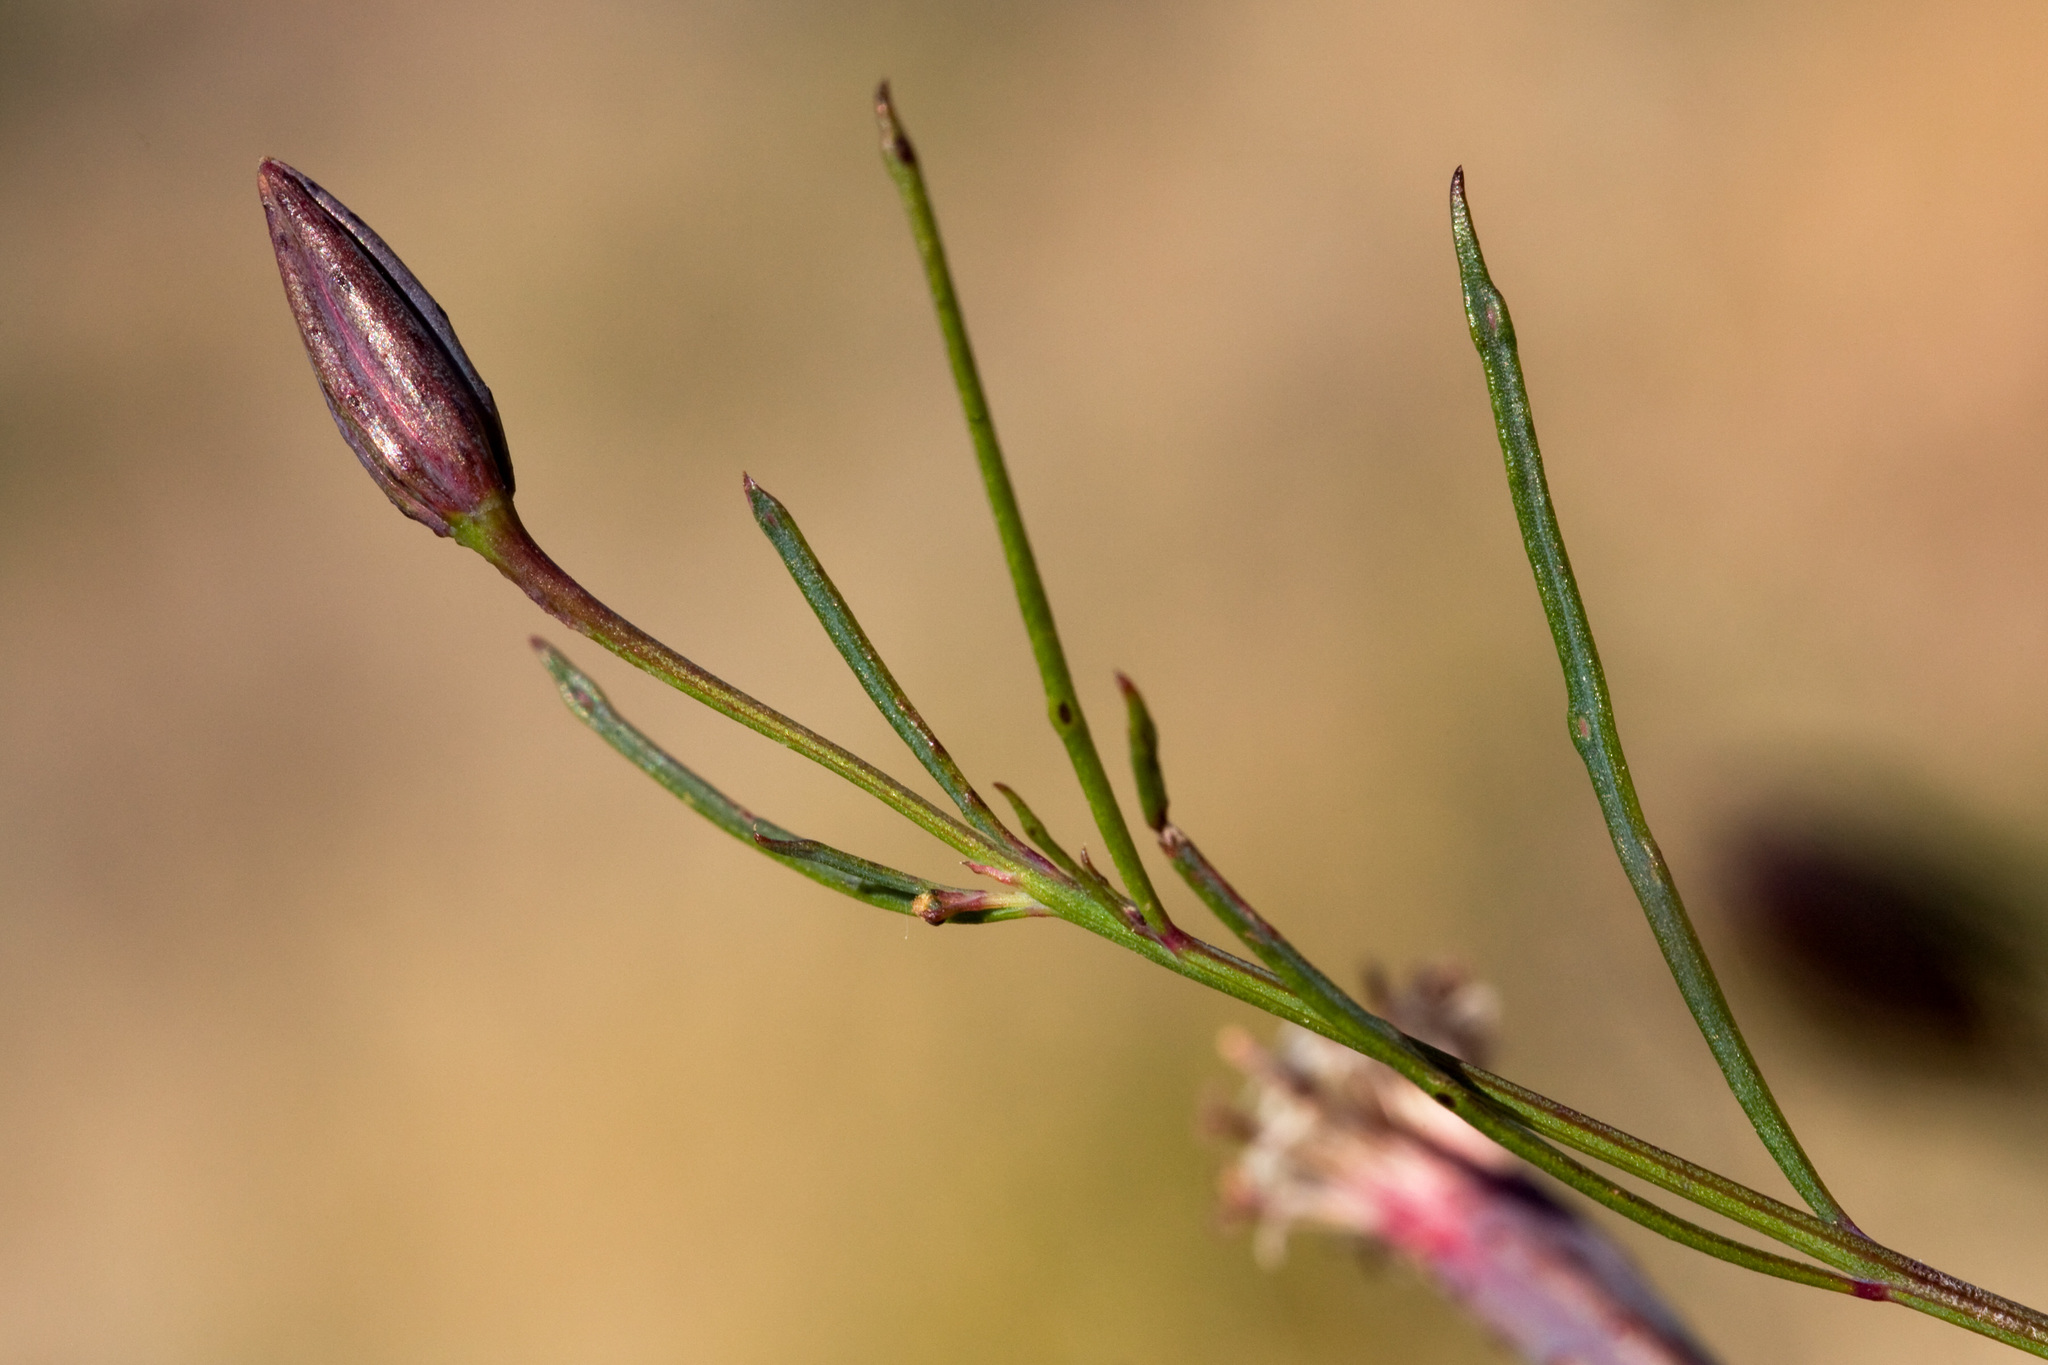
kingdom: Plantae
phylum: Tracheophyta
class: Magnoliopsida
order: Asterales
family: Asteraceae
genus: Porophyllum
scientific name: Porophyllum gracile
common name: Odora
